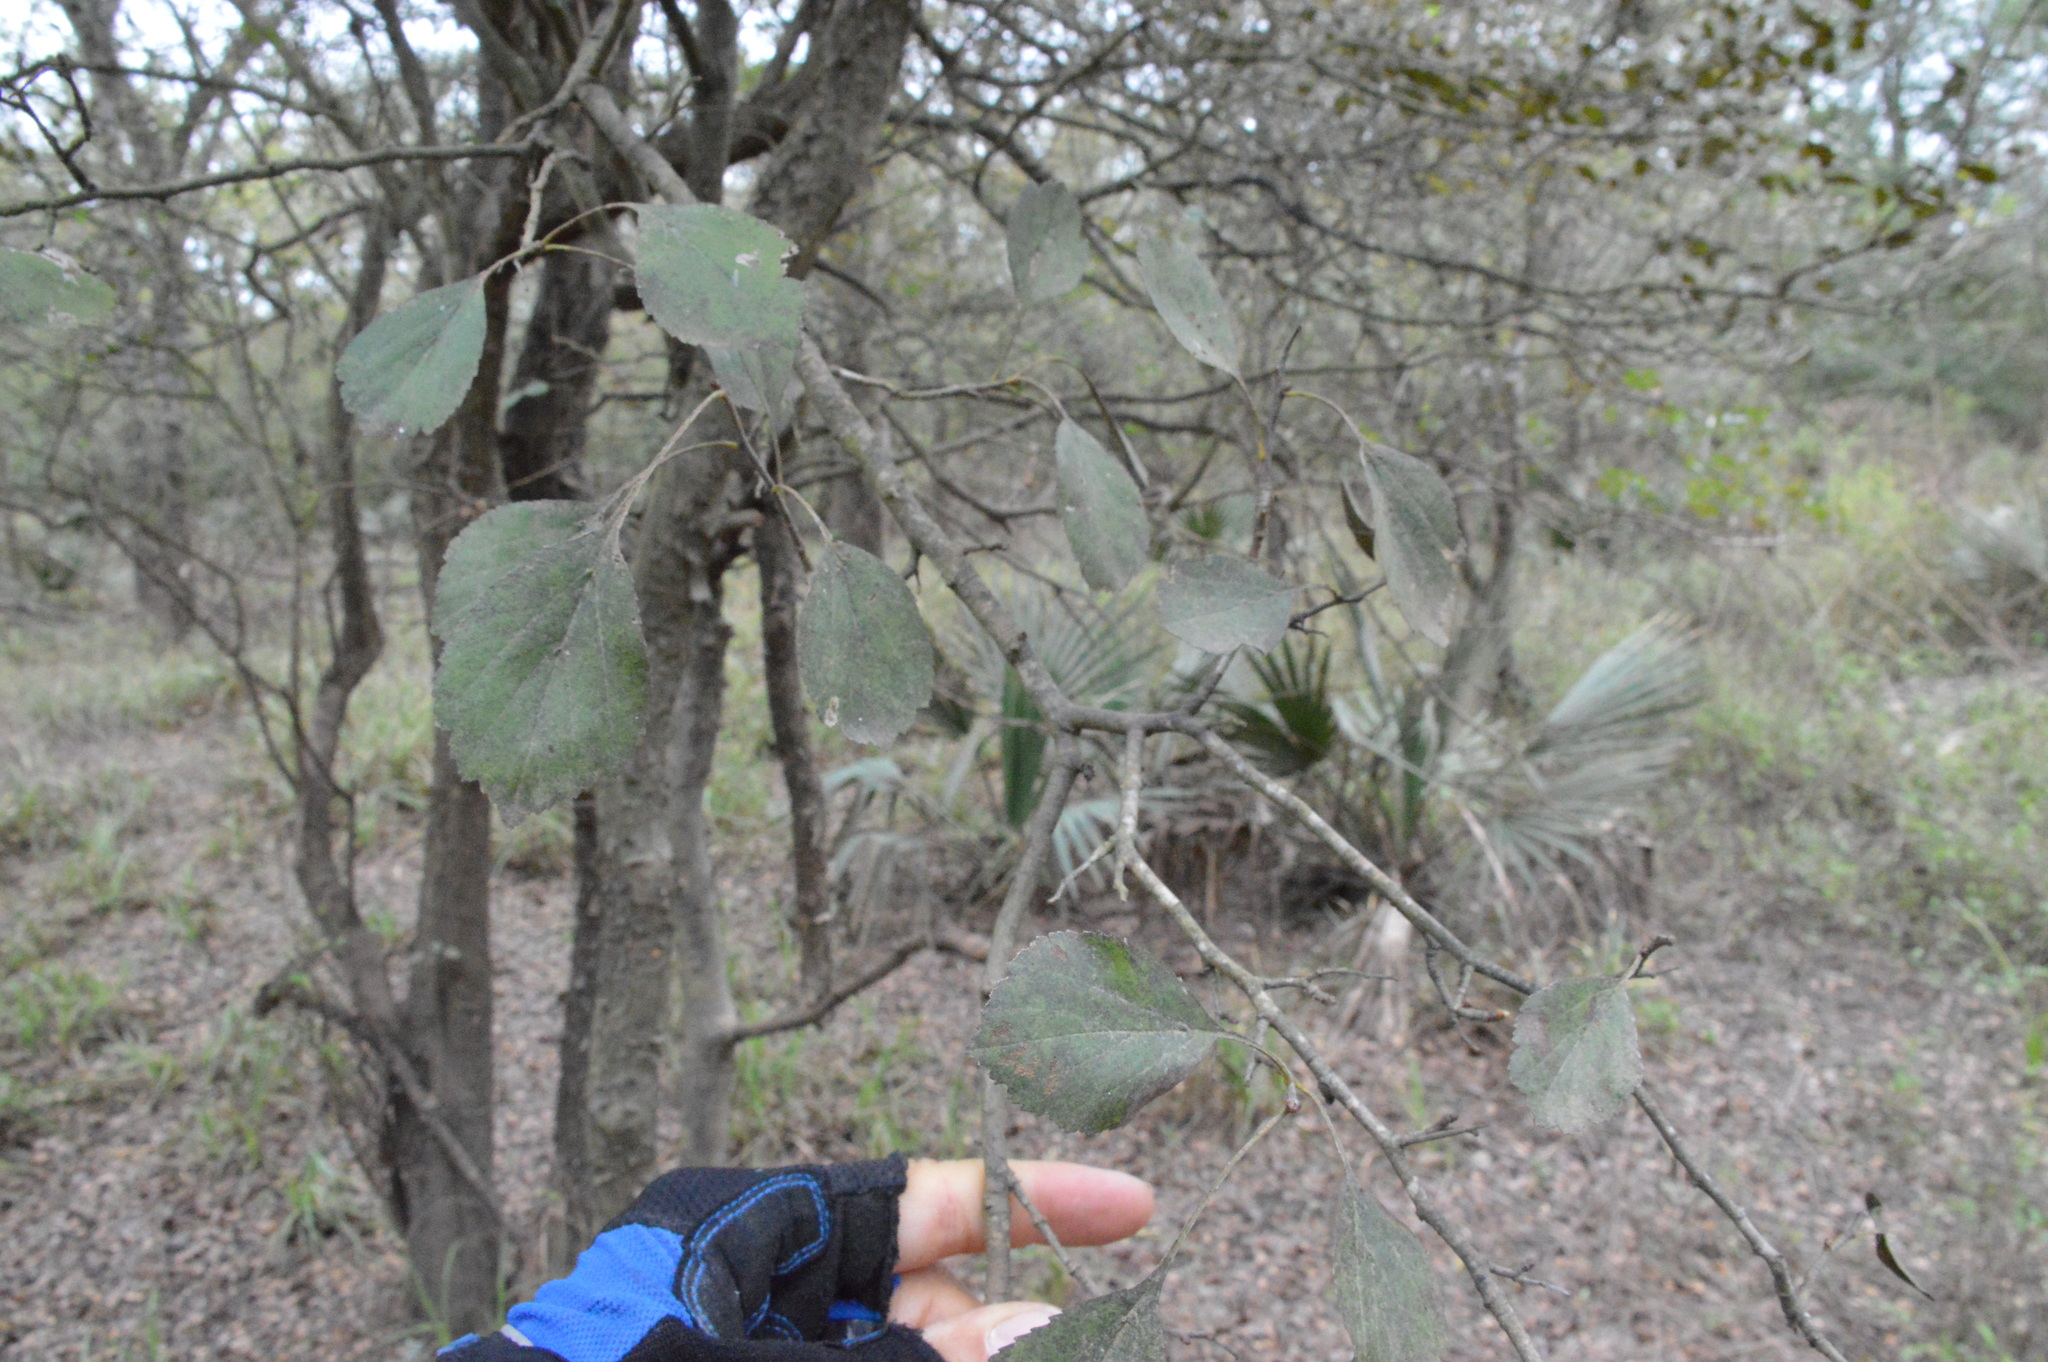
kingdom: Plantae
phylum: Tracheophyta
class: Magnoliopsida
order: Rosales
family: Rosaceae
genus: Crataegus
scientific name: Crataegus viridis
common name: Southernthorn
